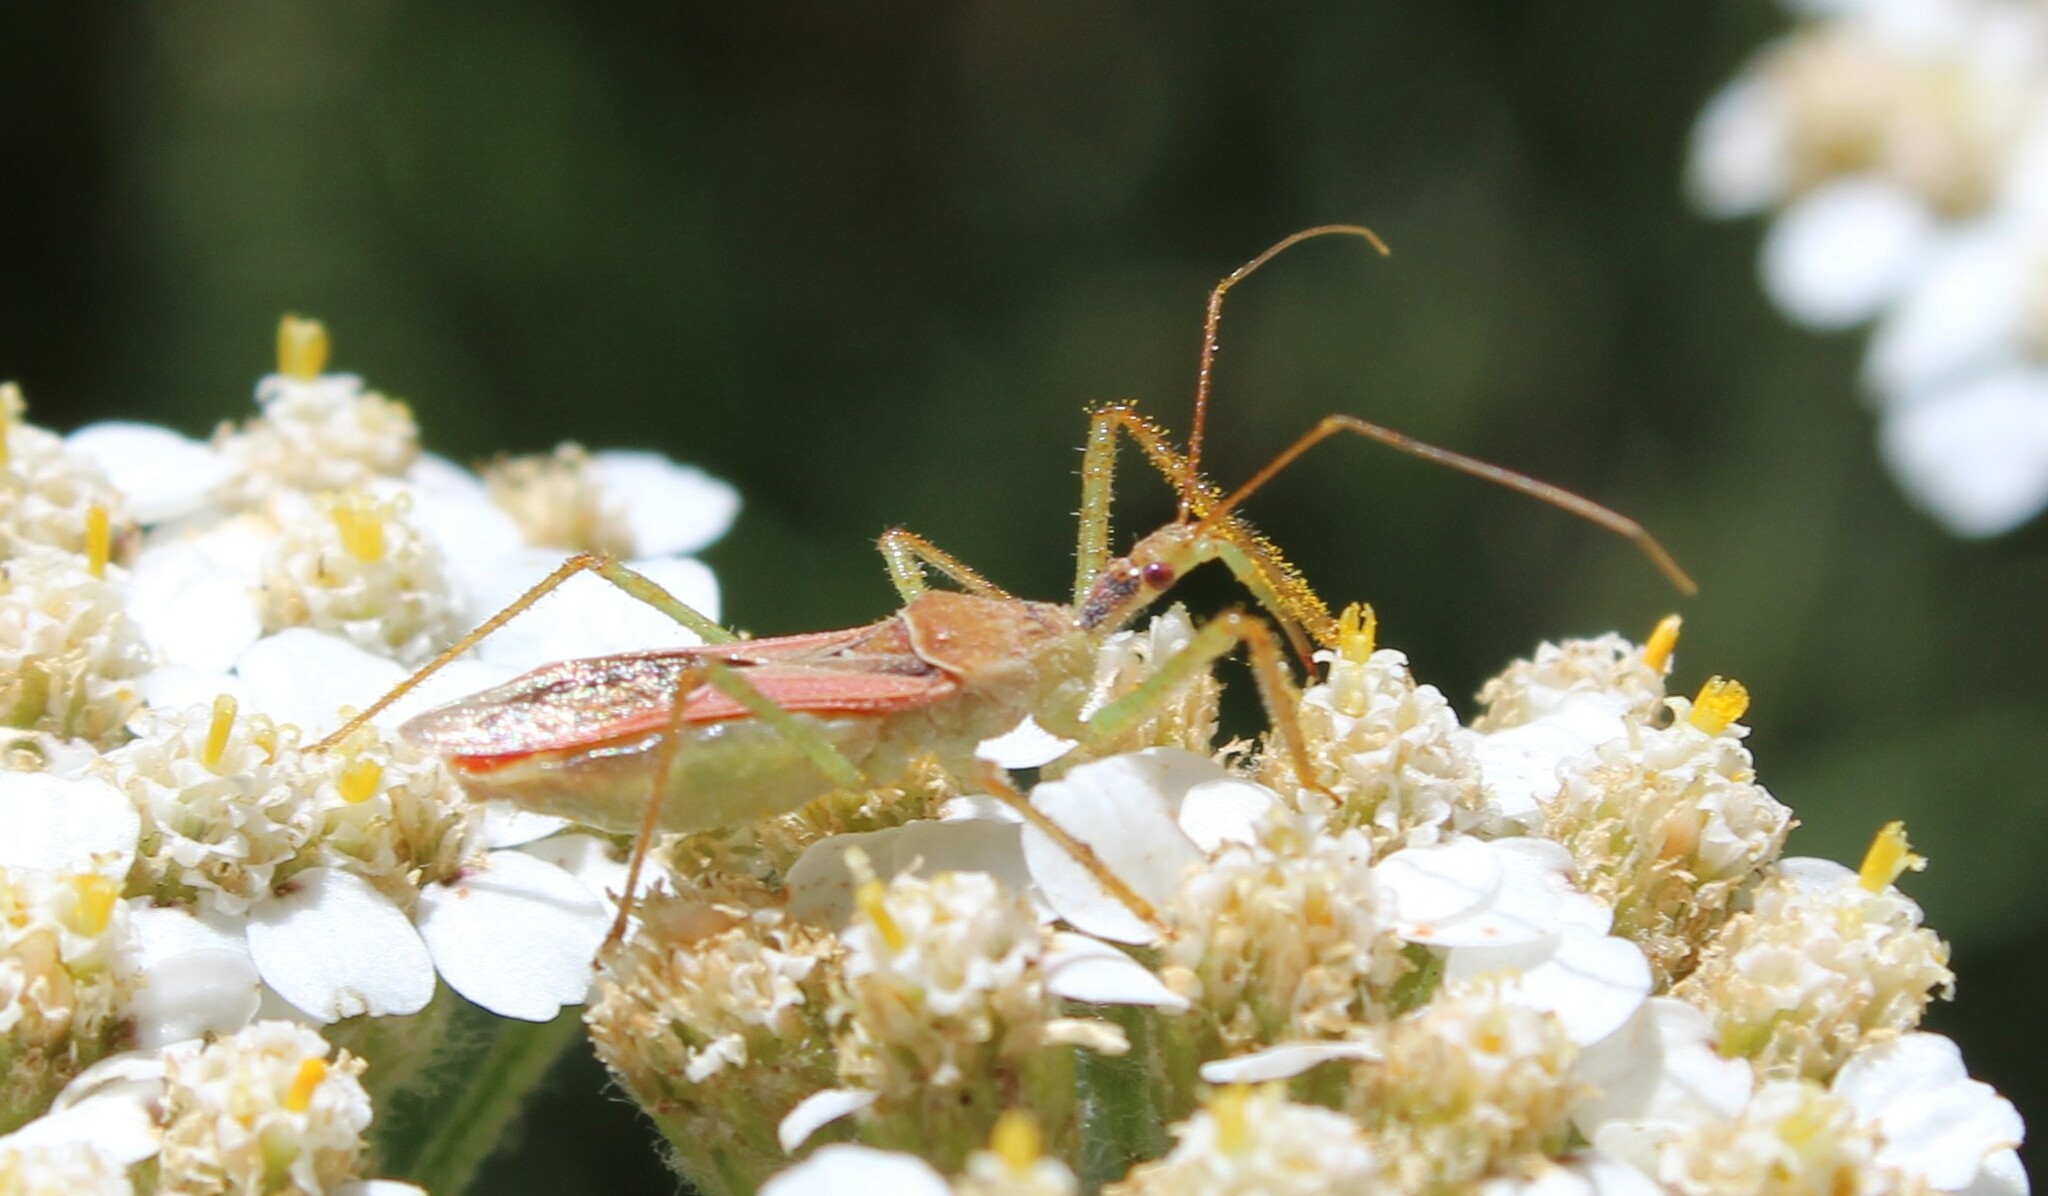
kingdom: Animalia
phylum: Arthropoda
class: Insecta
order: Hemiptera
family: Reduviidae
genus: Zelus
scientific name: Zelus renardii
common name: Assassin bug
